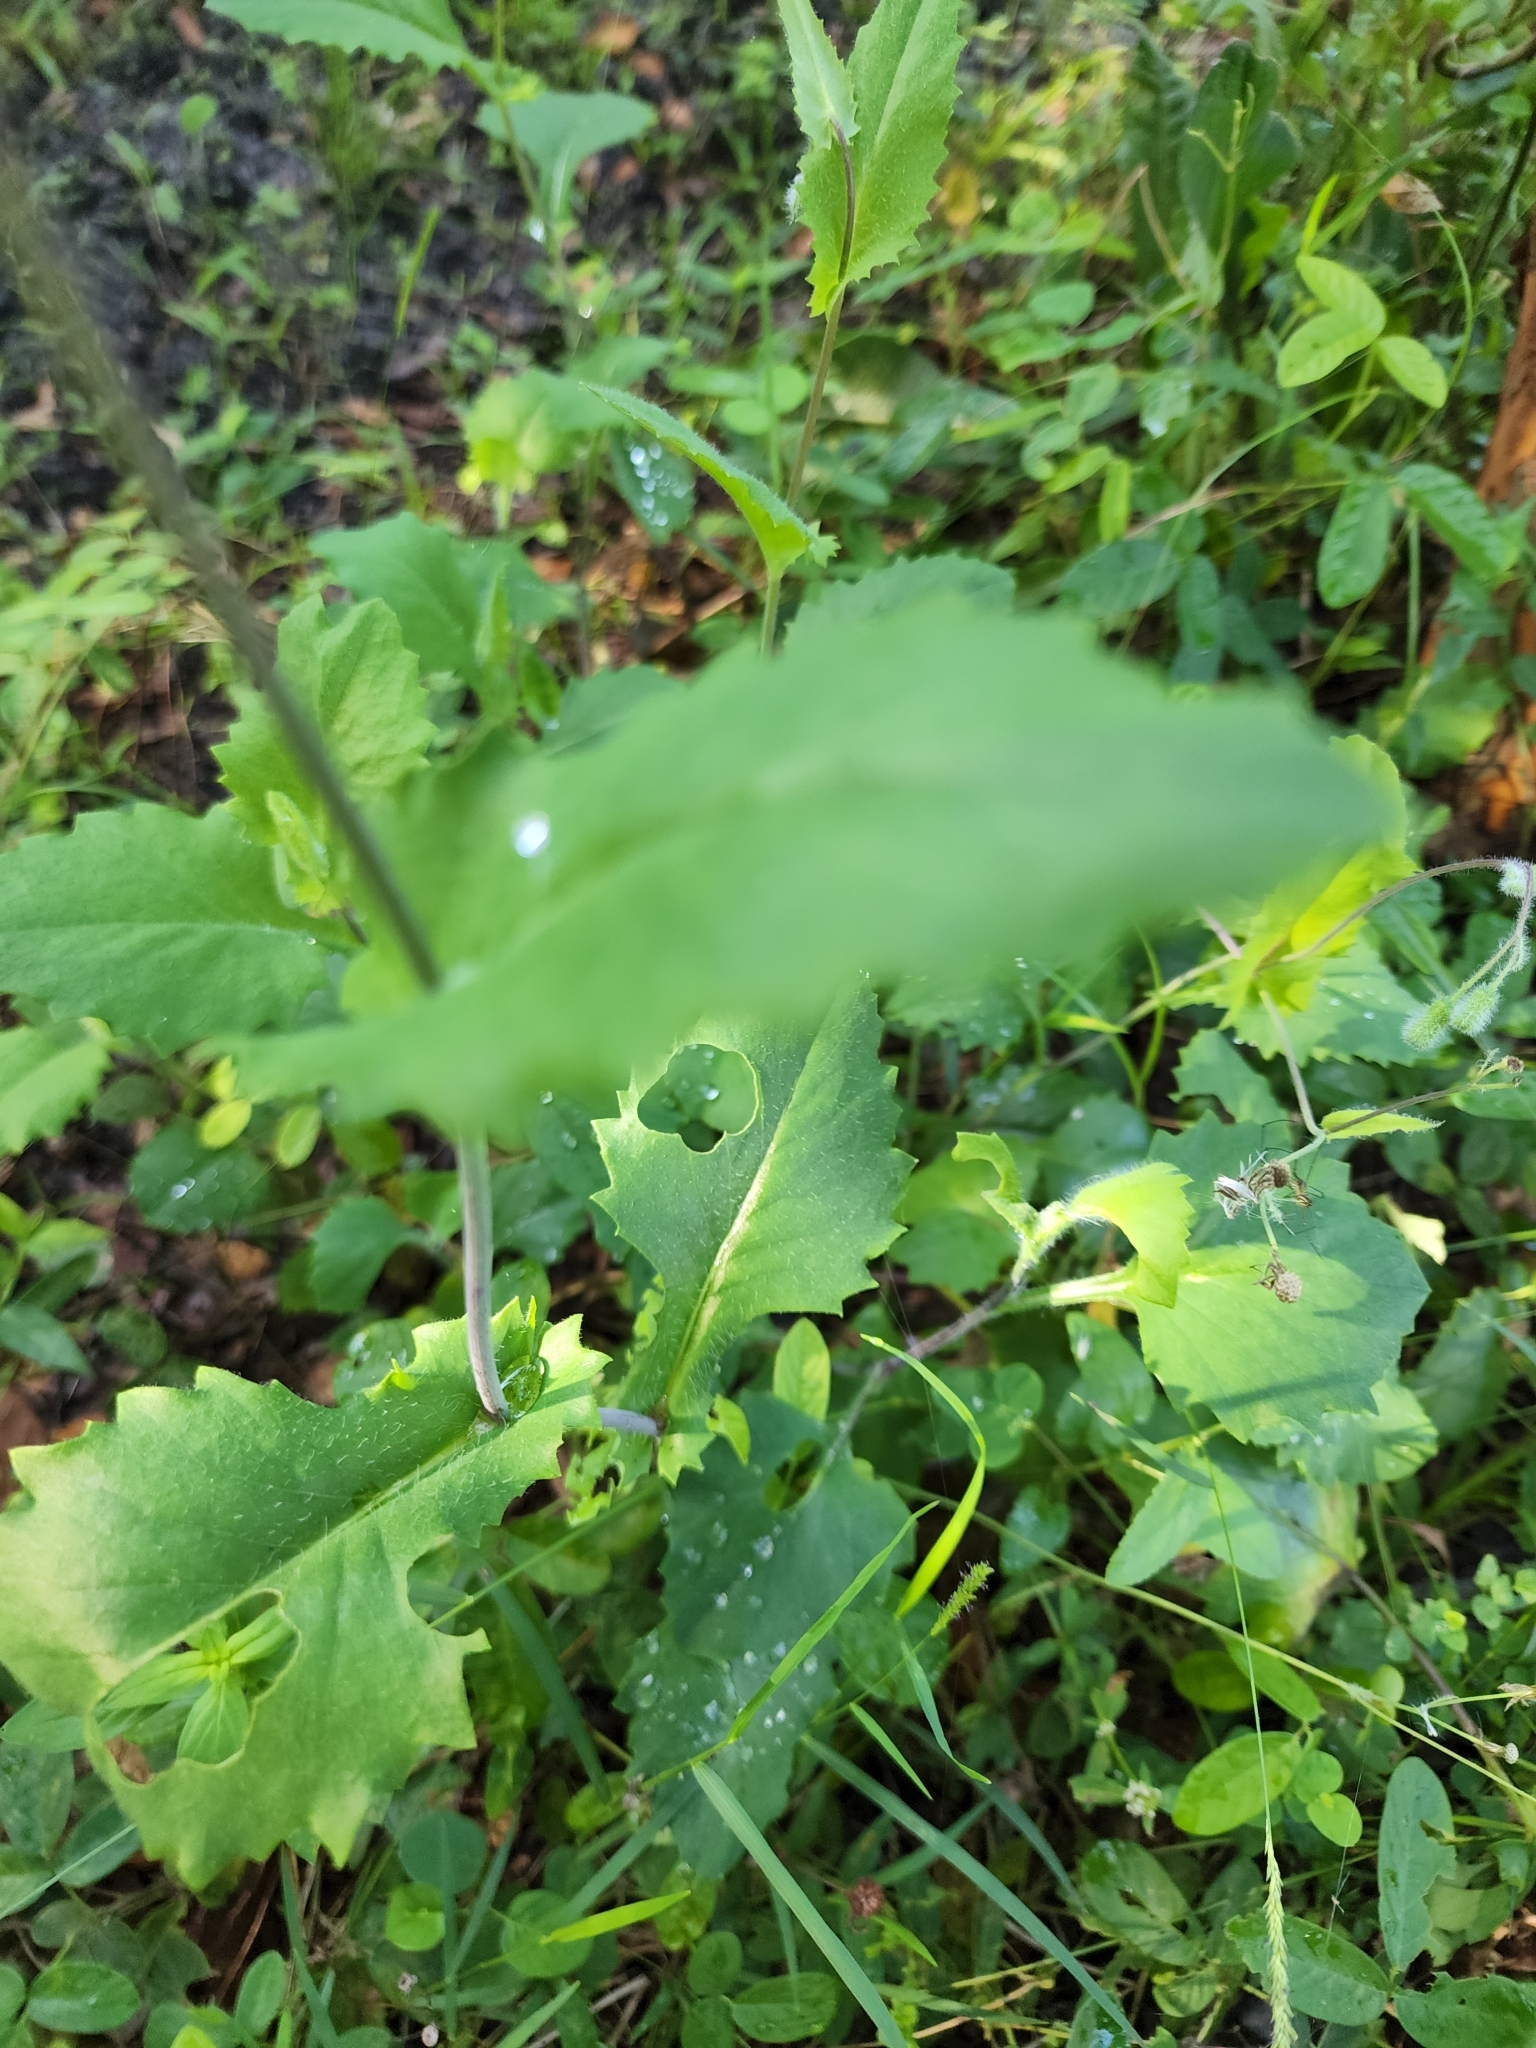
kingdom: Plantae
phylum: Tracheophyta
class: Magnoliopsida
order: Asterales
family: Asteraceae
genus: Emilia
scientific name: Emilia praetermissa
